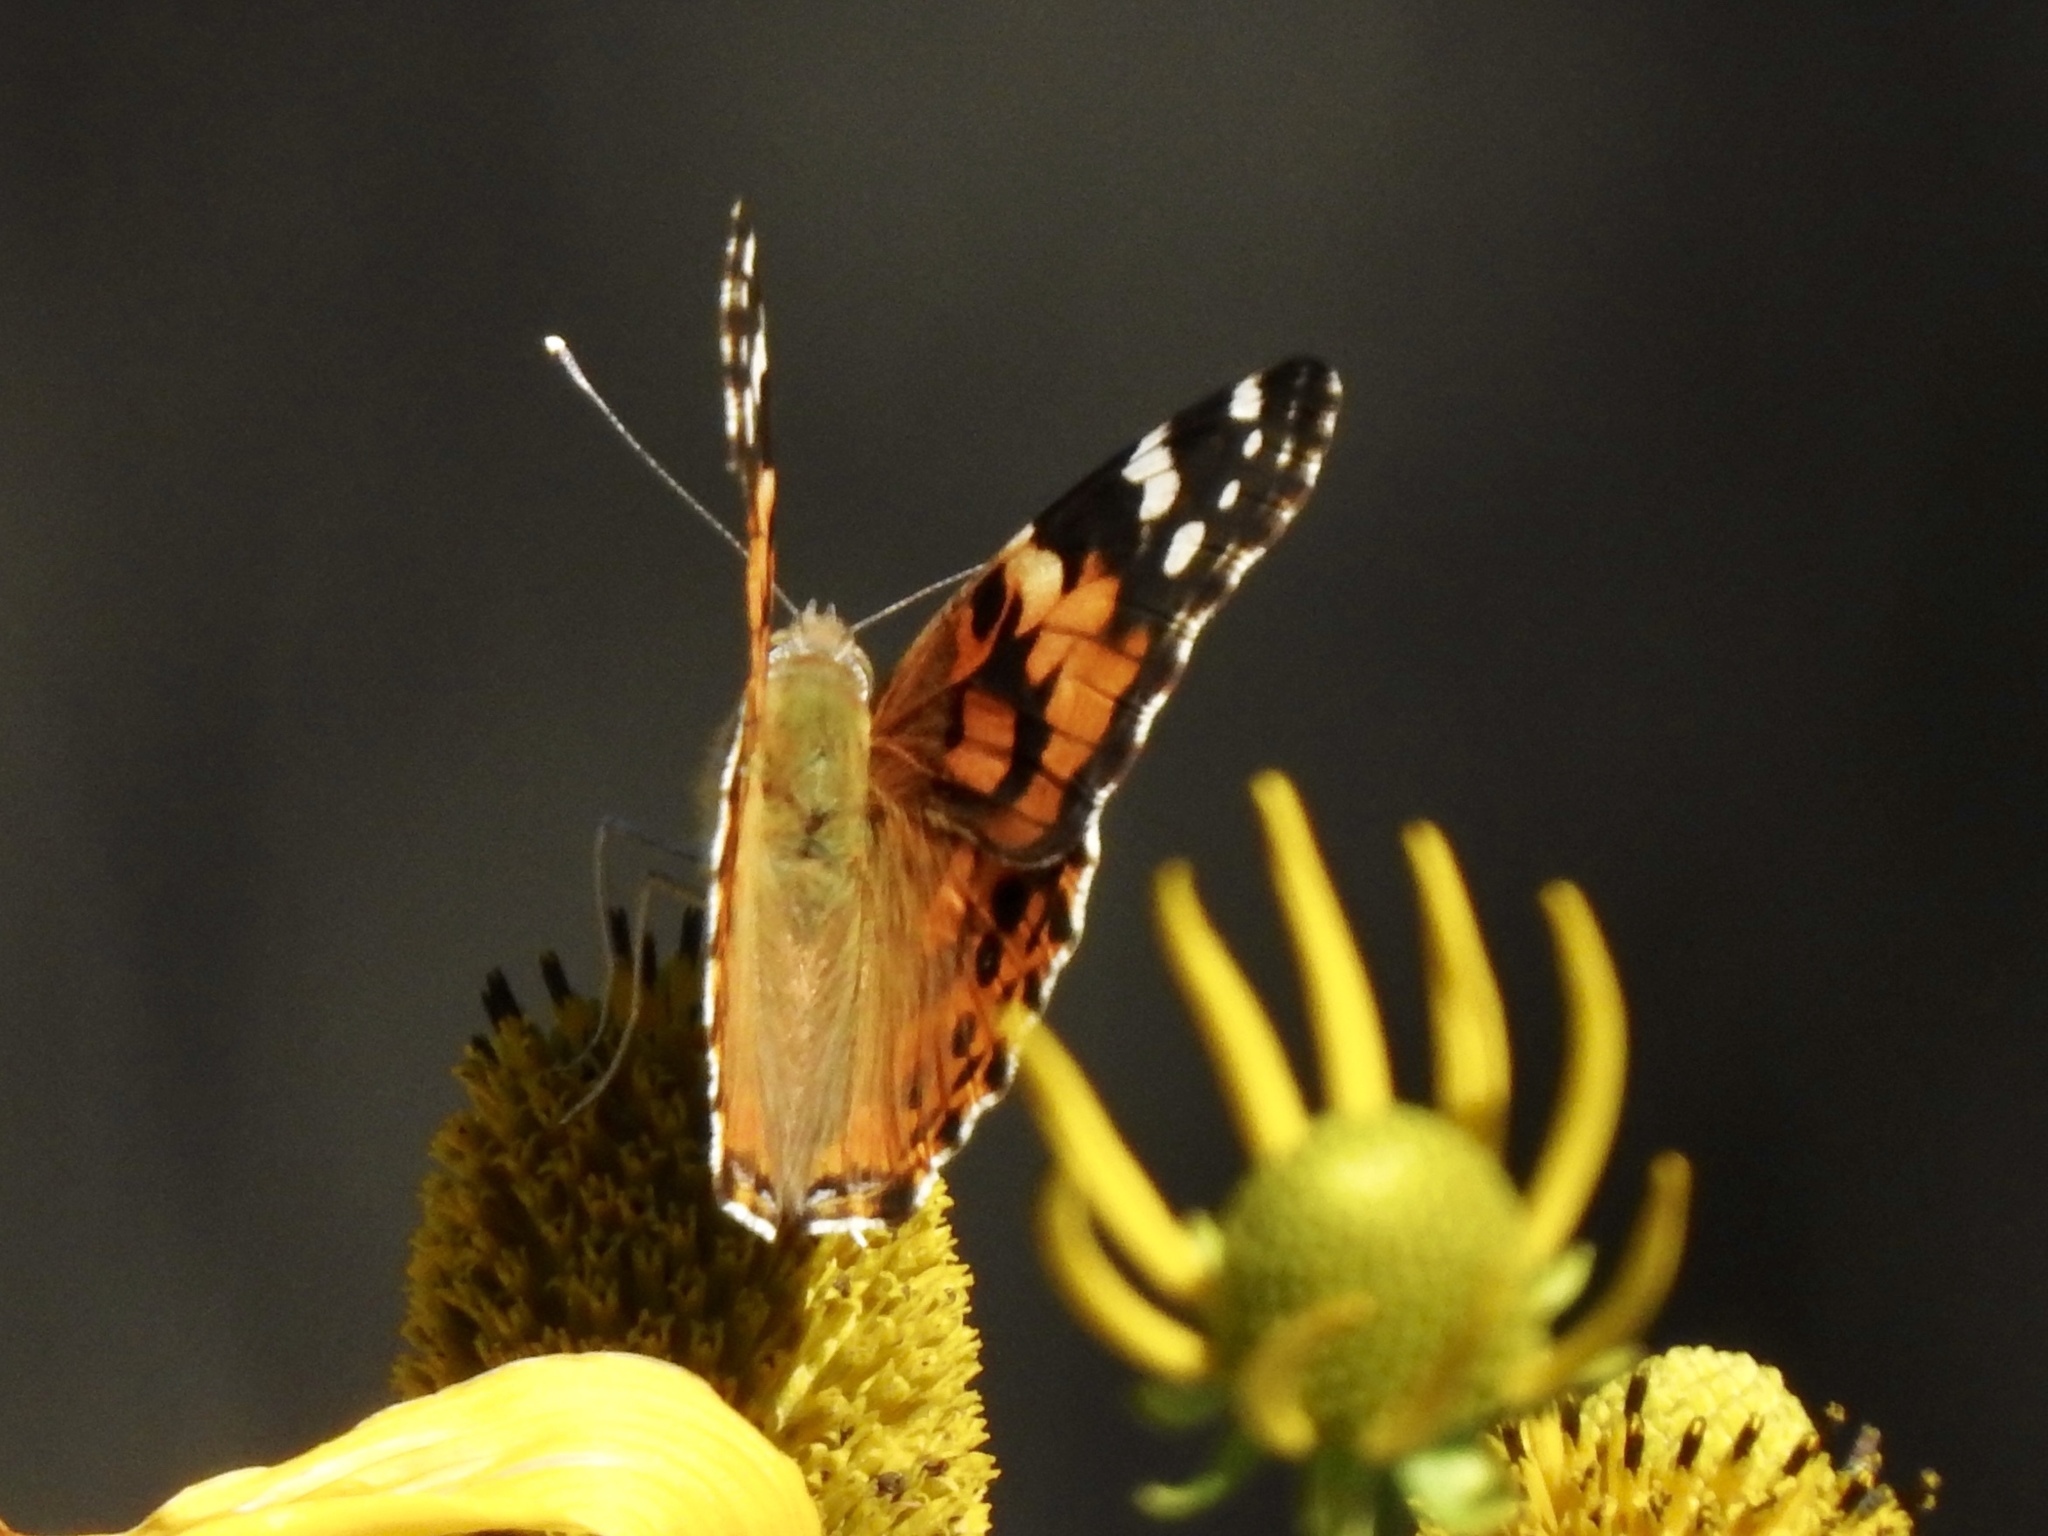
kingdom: Animalia
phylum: Arthropoda
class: Insecta
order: Lepidoptera
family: Nymphalidae
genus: Vanessa
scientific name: Vanessa cardui
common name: Painted lady
